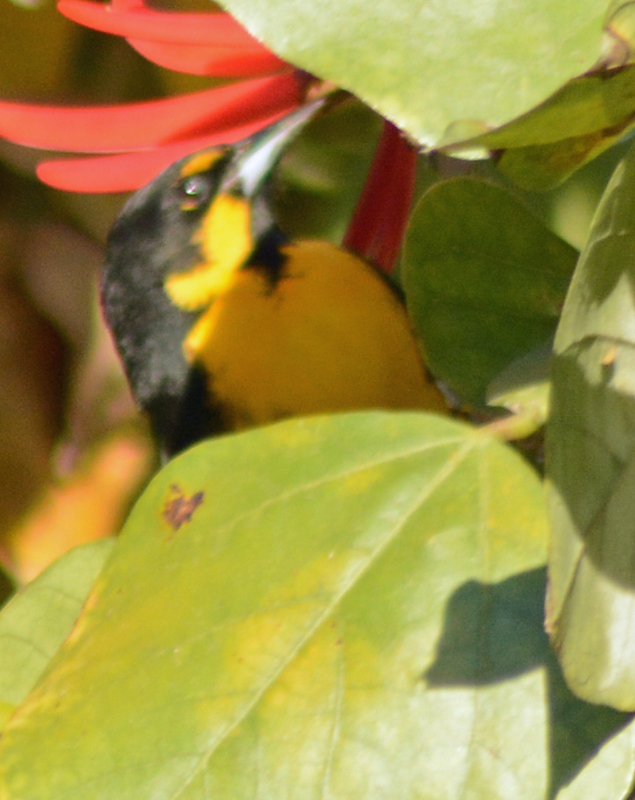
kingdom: Animalia
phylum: Chordata
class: Aves
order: Passeriformes
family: Icteridae
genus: Icterus
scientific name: Icterus abeillei
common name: Black-backed oriole
